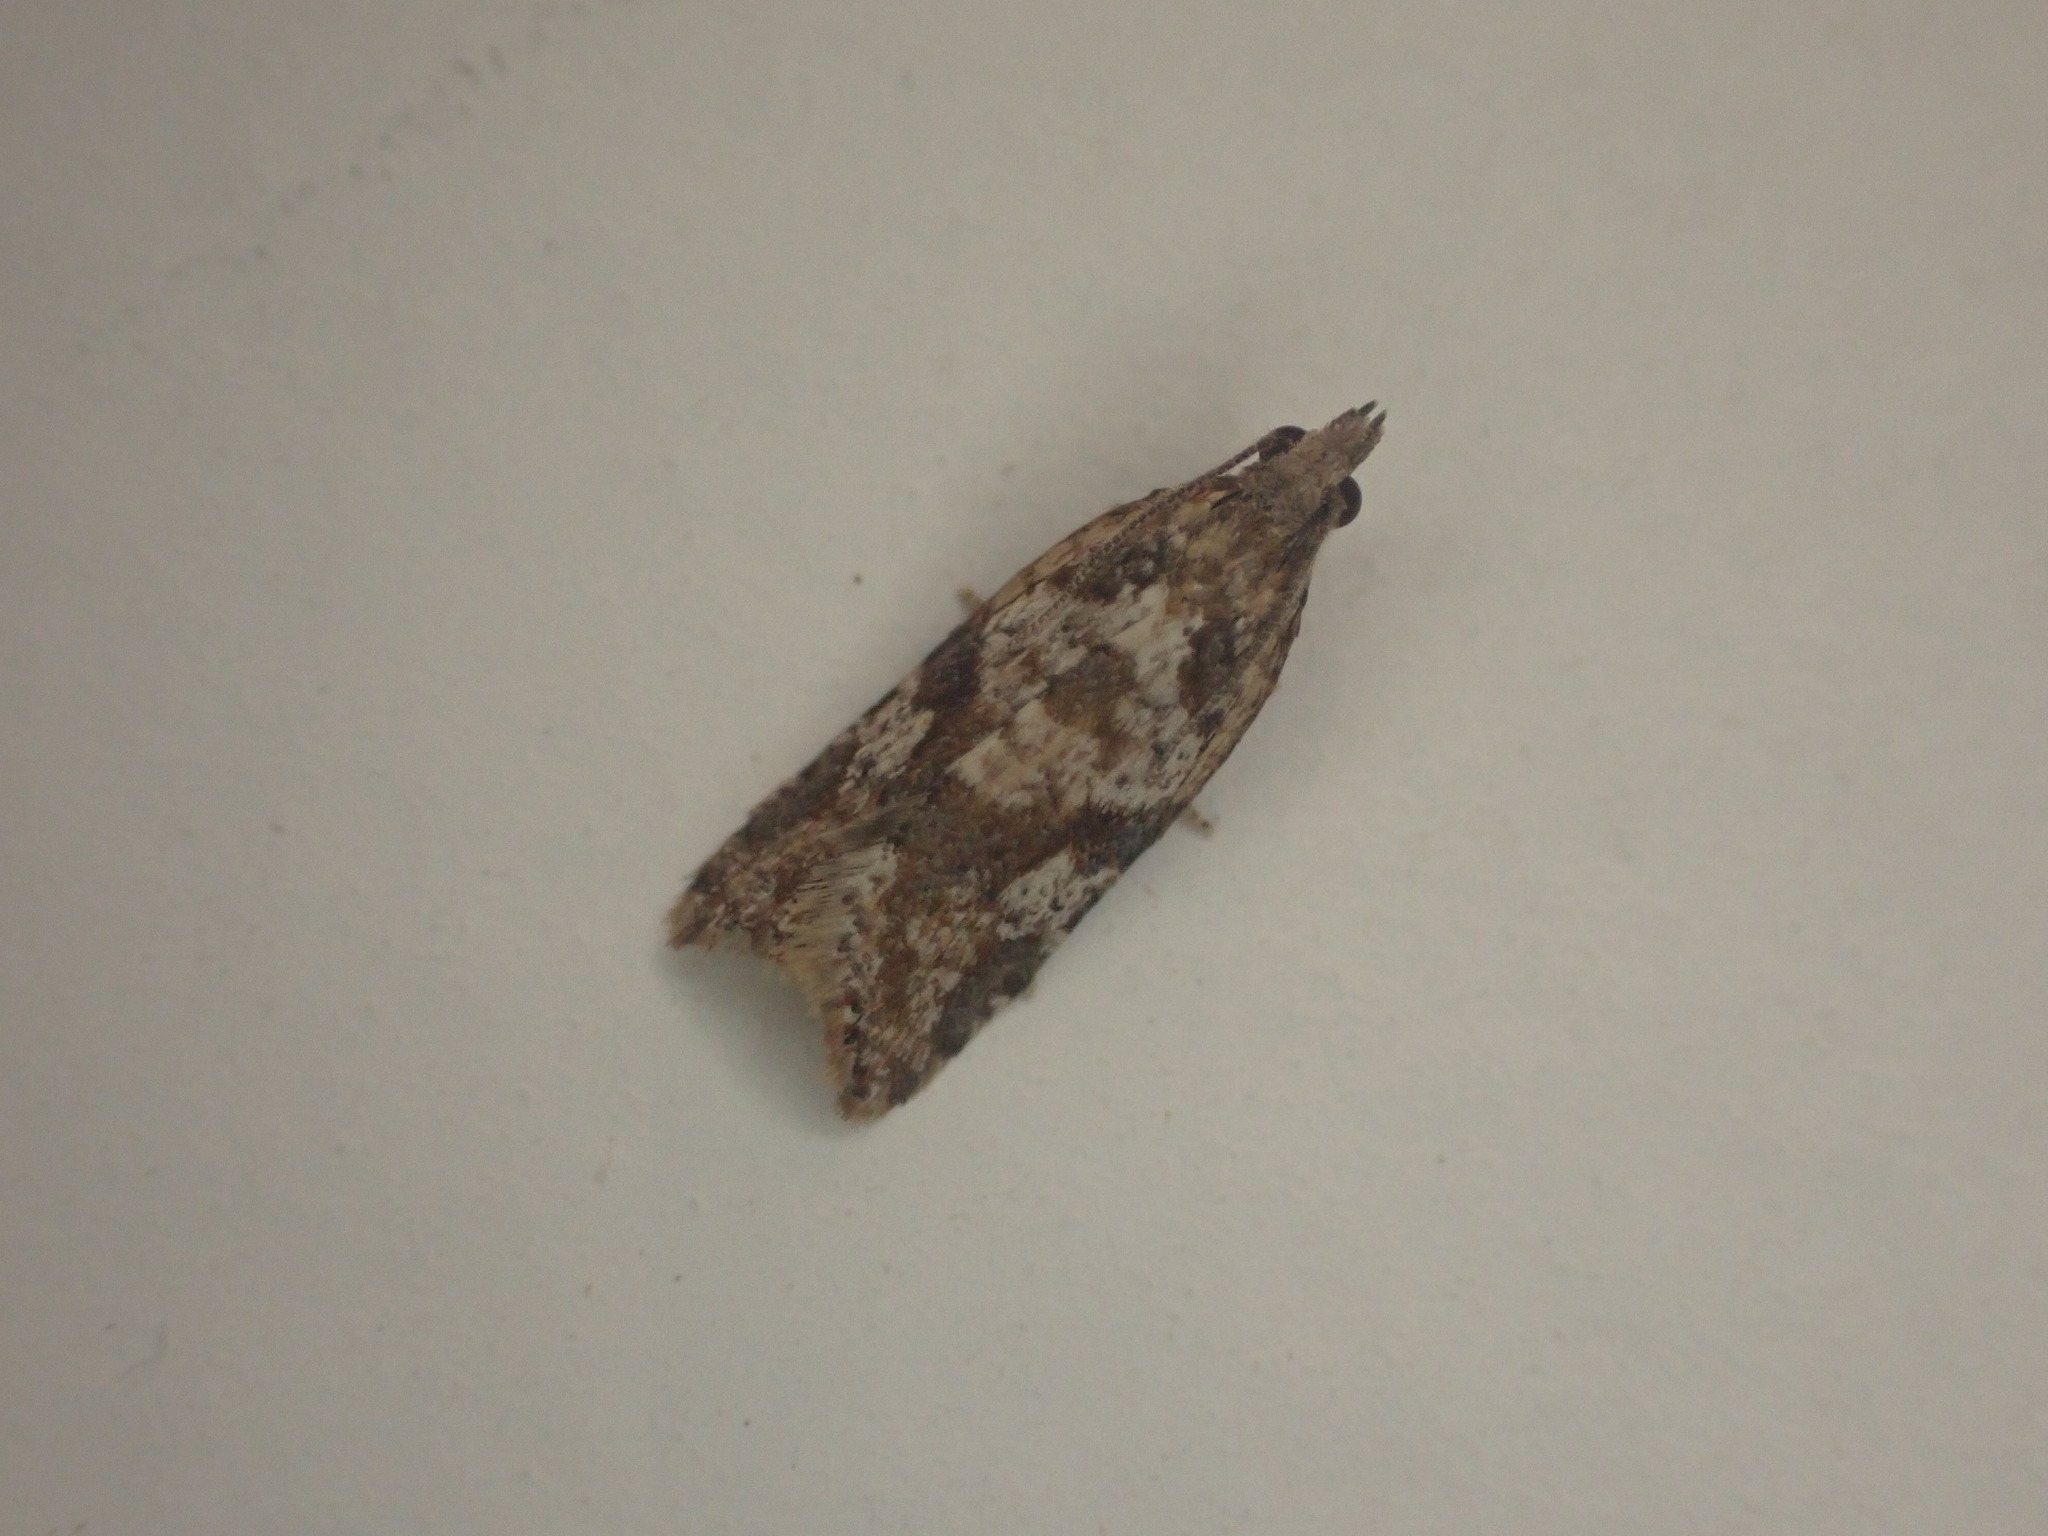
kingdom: Animalia
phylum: Arthropoda
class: Insecta
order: Lepidoptera
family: Tortricidae
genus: Capua
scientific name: Capua semiferana
